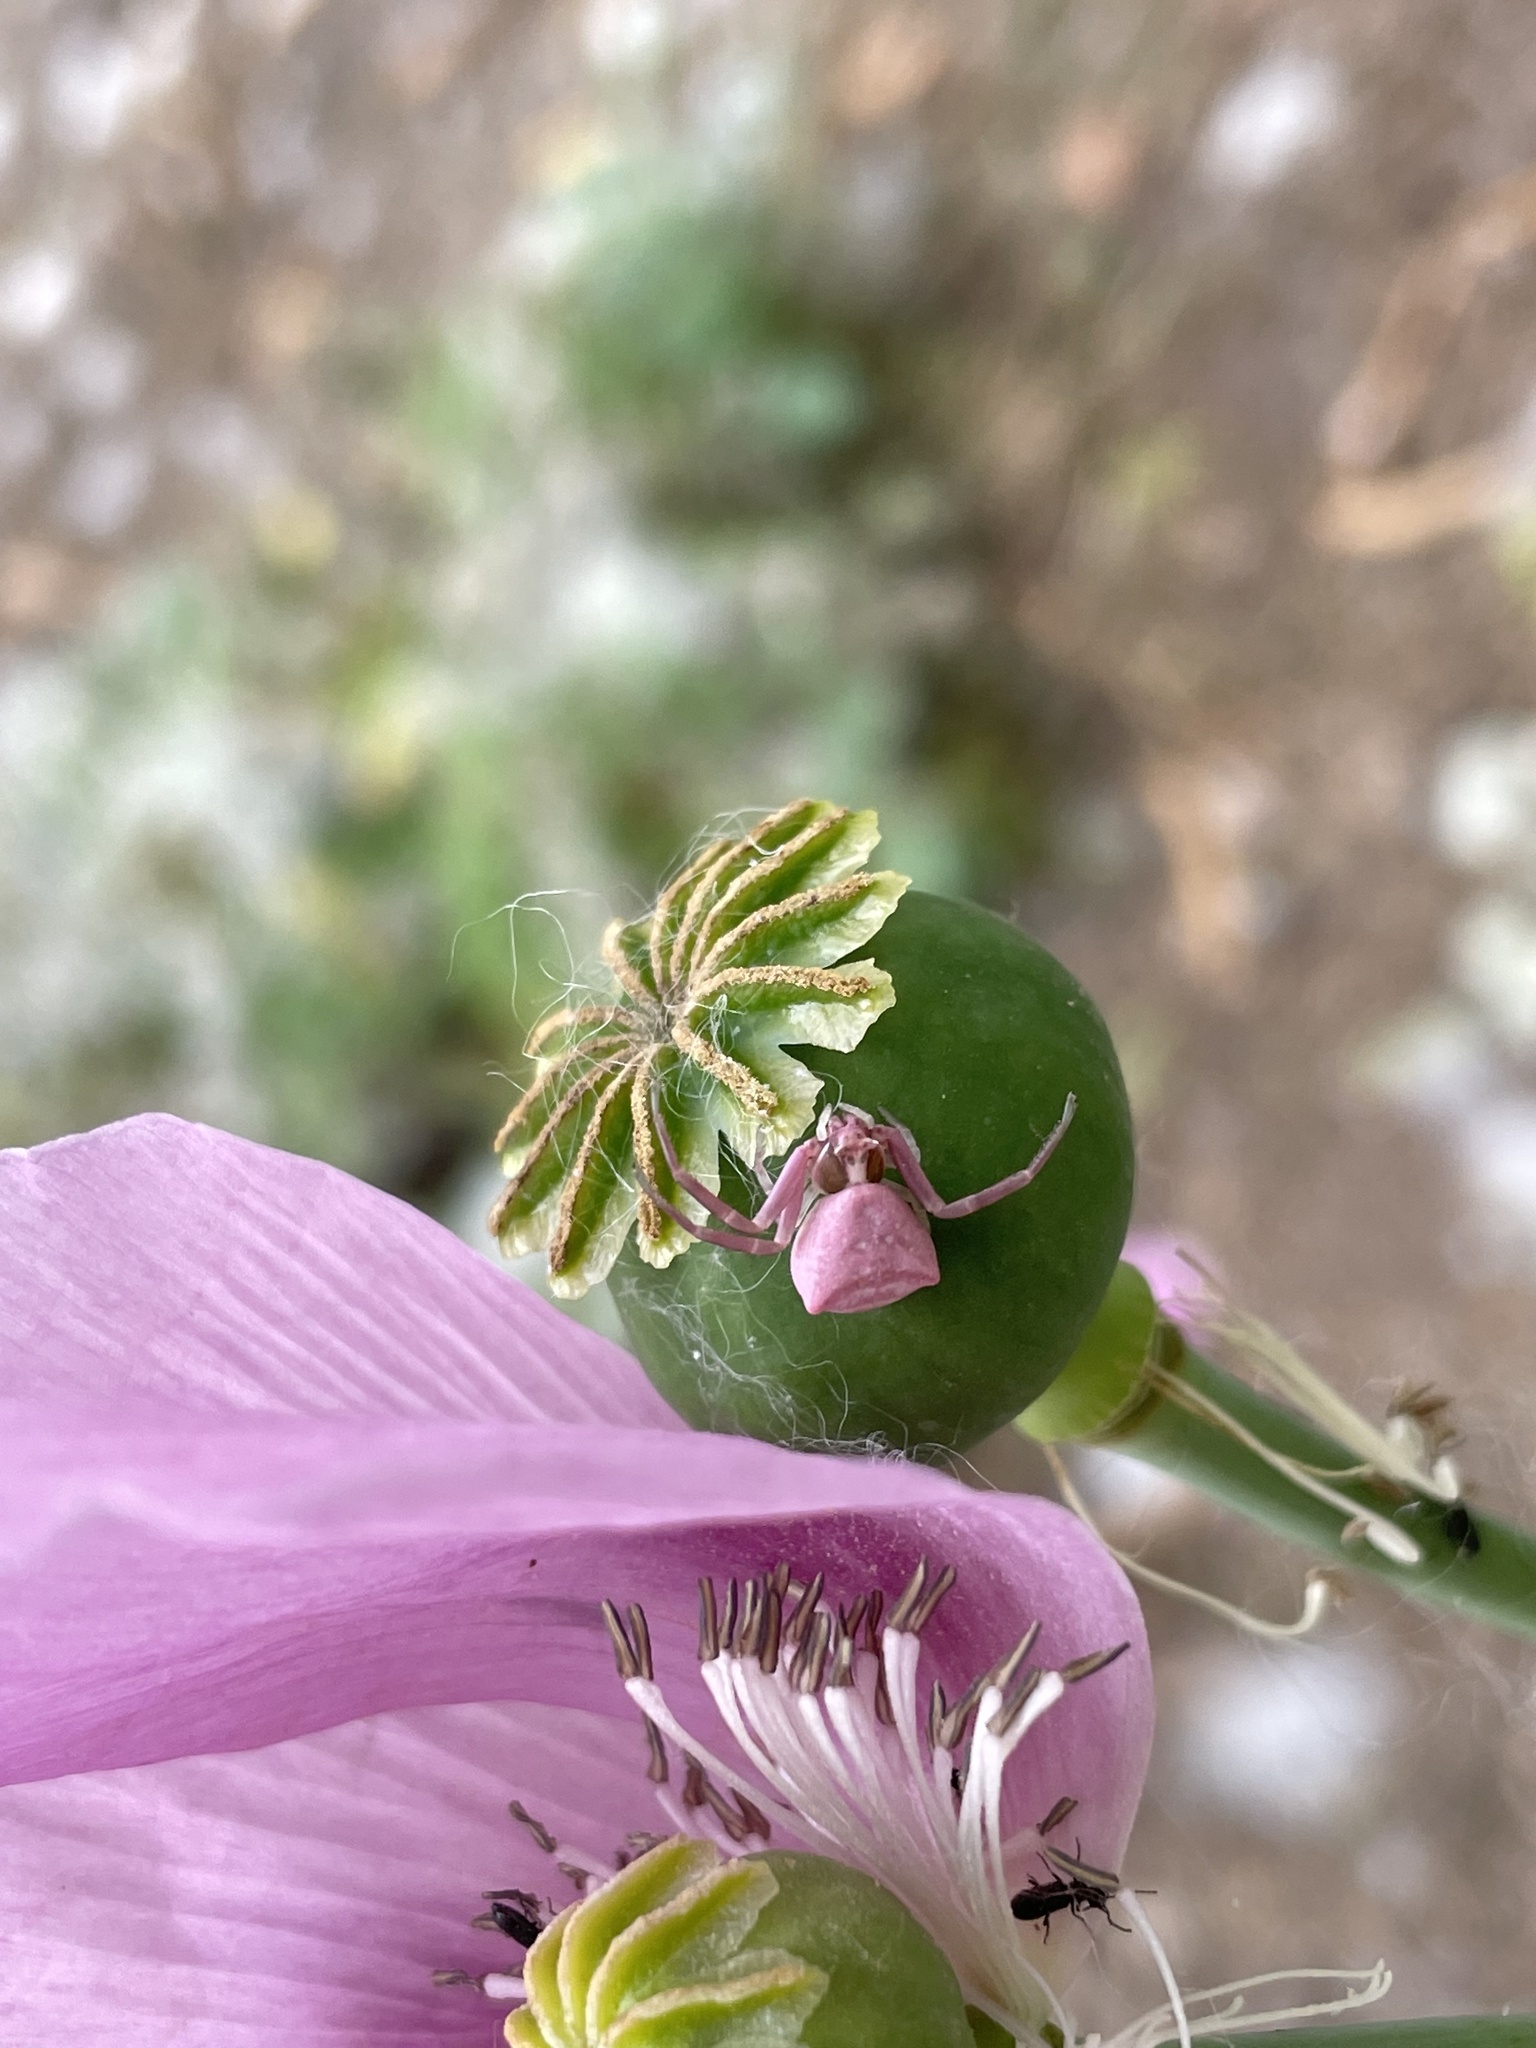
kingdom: Animalia
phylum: Arthropoda
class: Arachnida
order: Araneae
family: Thomisidae
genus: Thomisus
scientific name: Thomisus onustus
